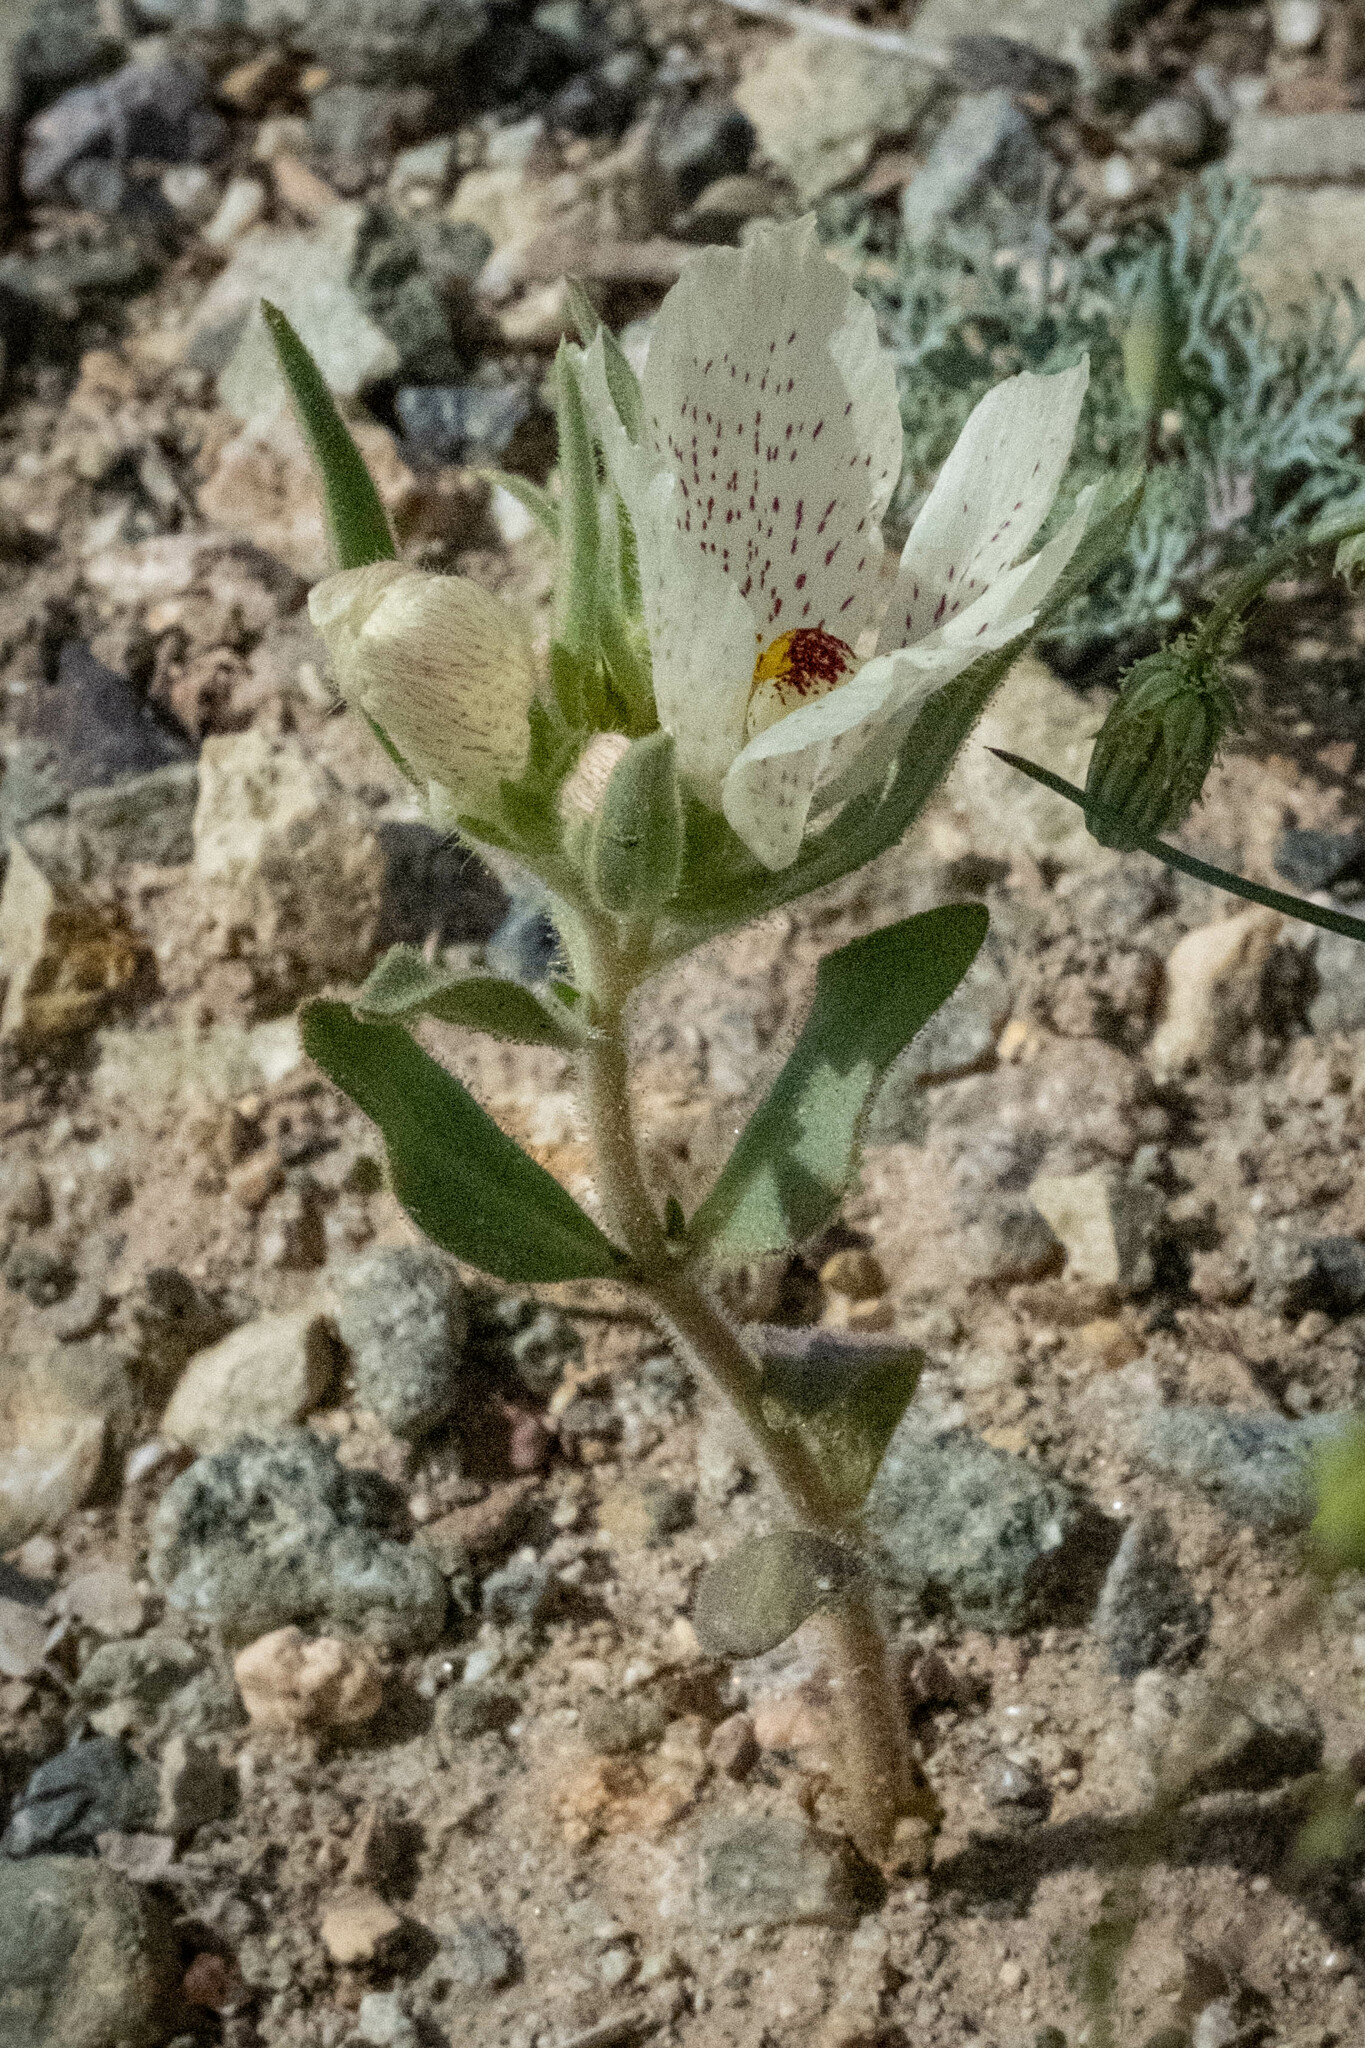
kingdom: Plantae
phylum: Tracheophyta
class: Magnoliopsida
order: Lamiales
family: Plantaginaceae
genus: Mohavea
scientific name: Mohavea confertiflora
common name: Ghost flower
